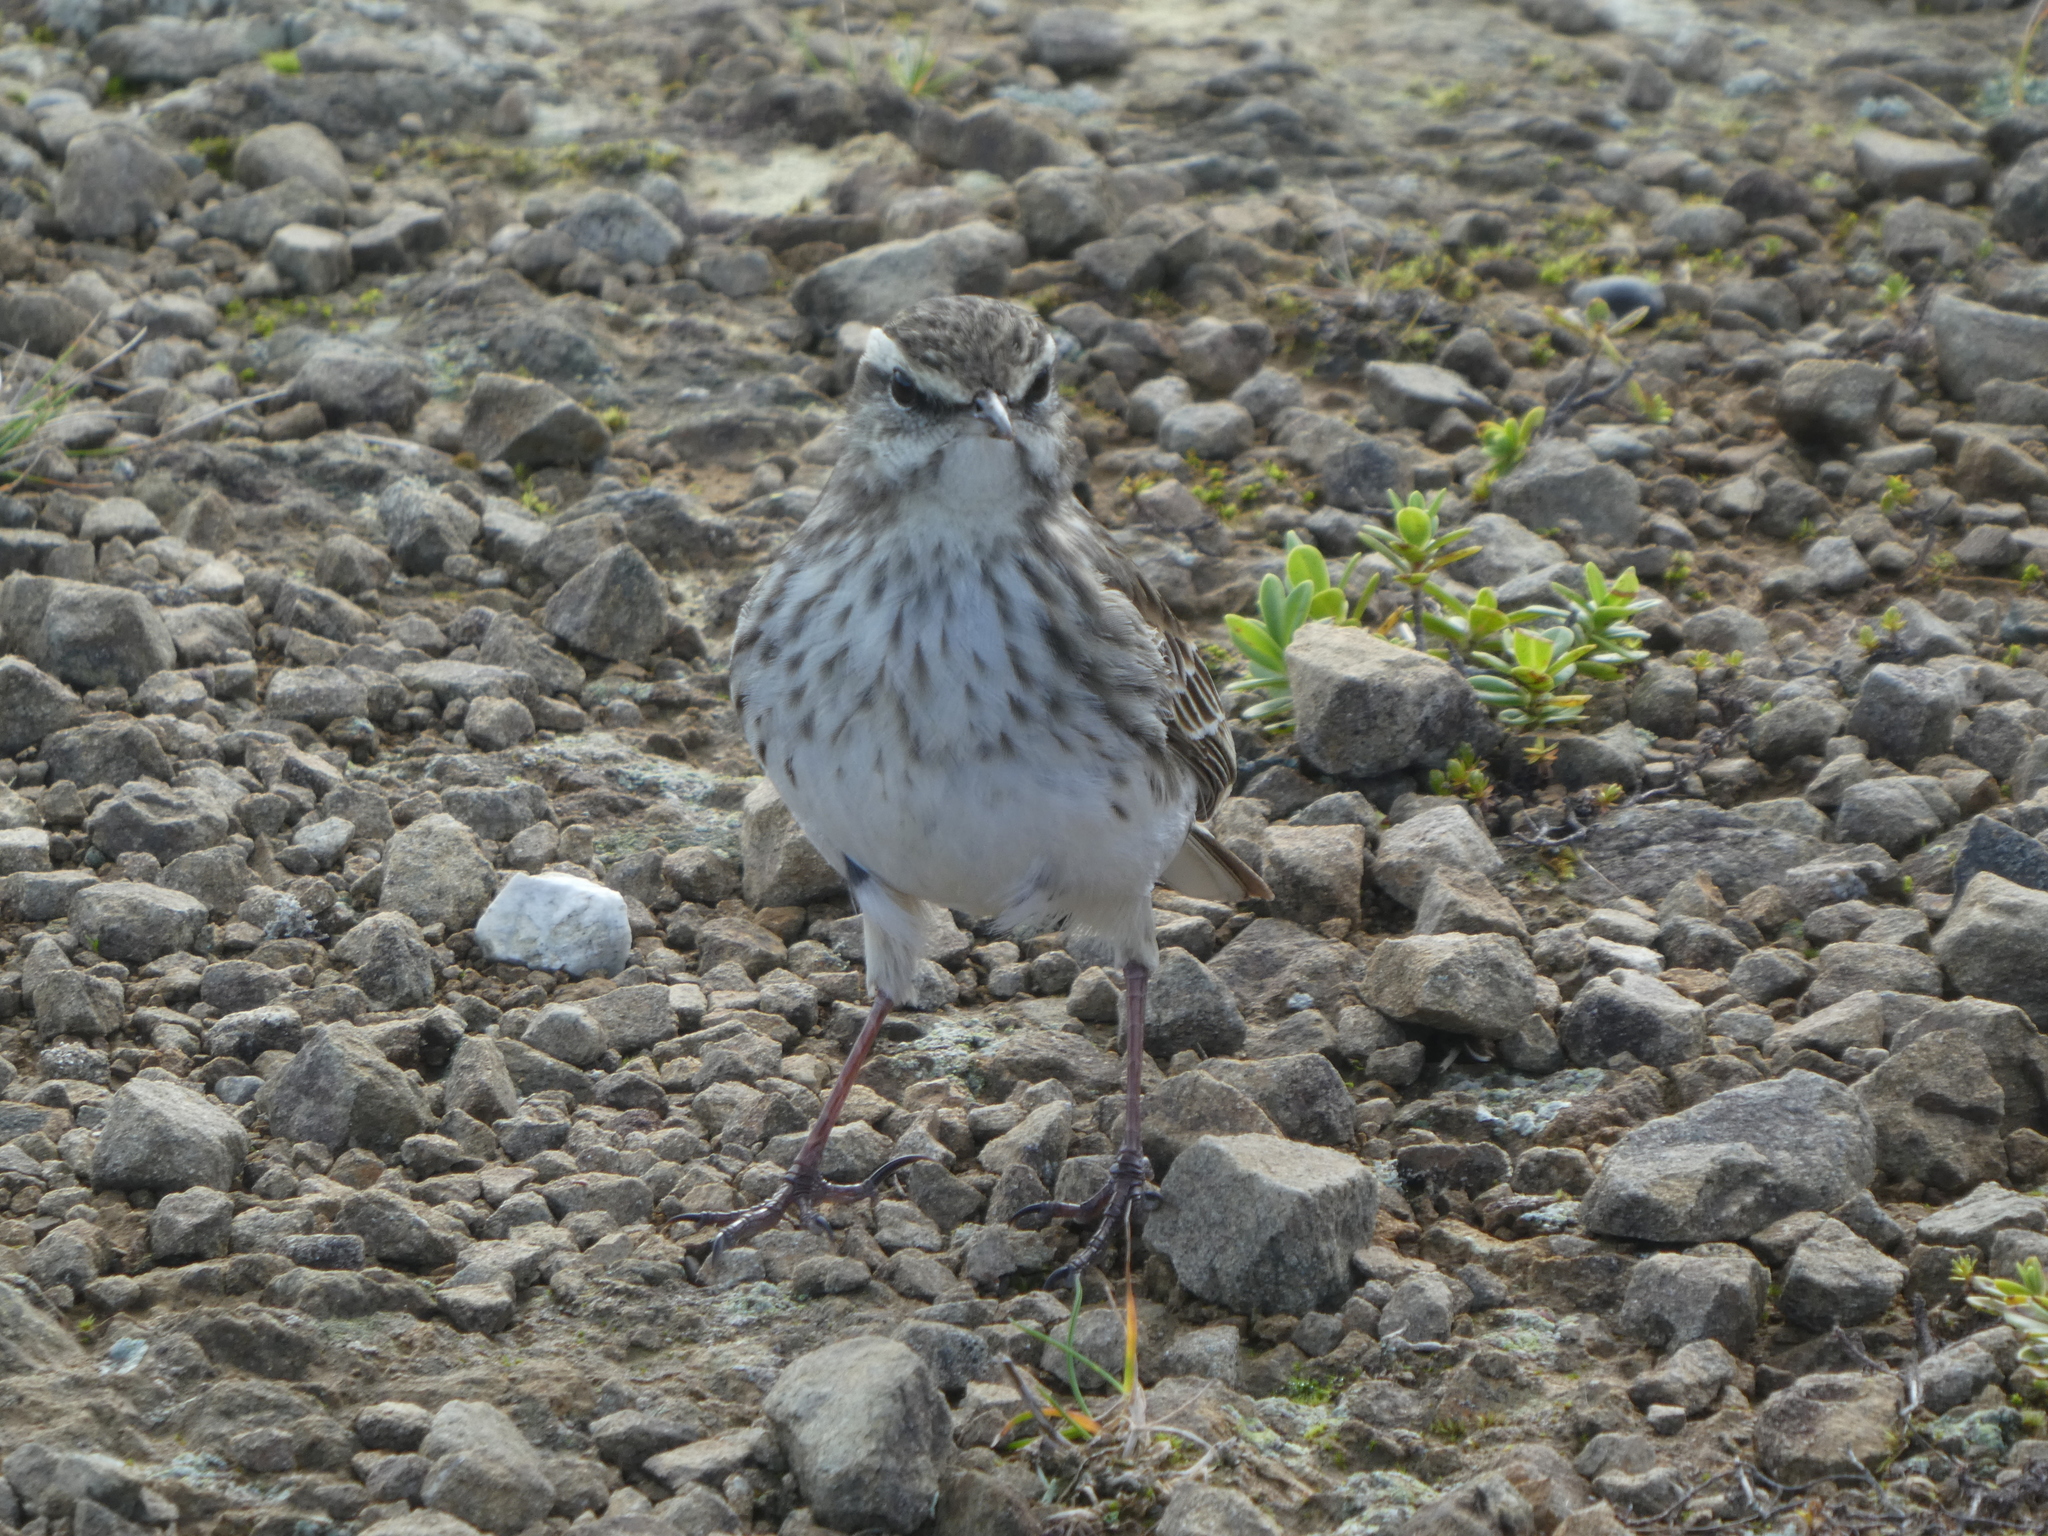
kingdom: Animalia
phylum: Chordata
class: Aves
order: Passeriformes
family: Motacillidae
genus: Anthus
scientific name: Anthus novaeseelandiae
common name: New zealand pipit
